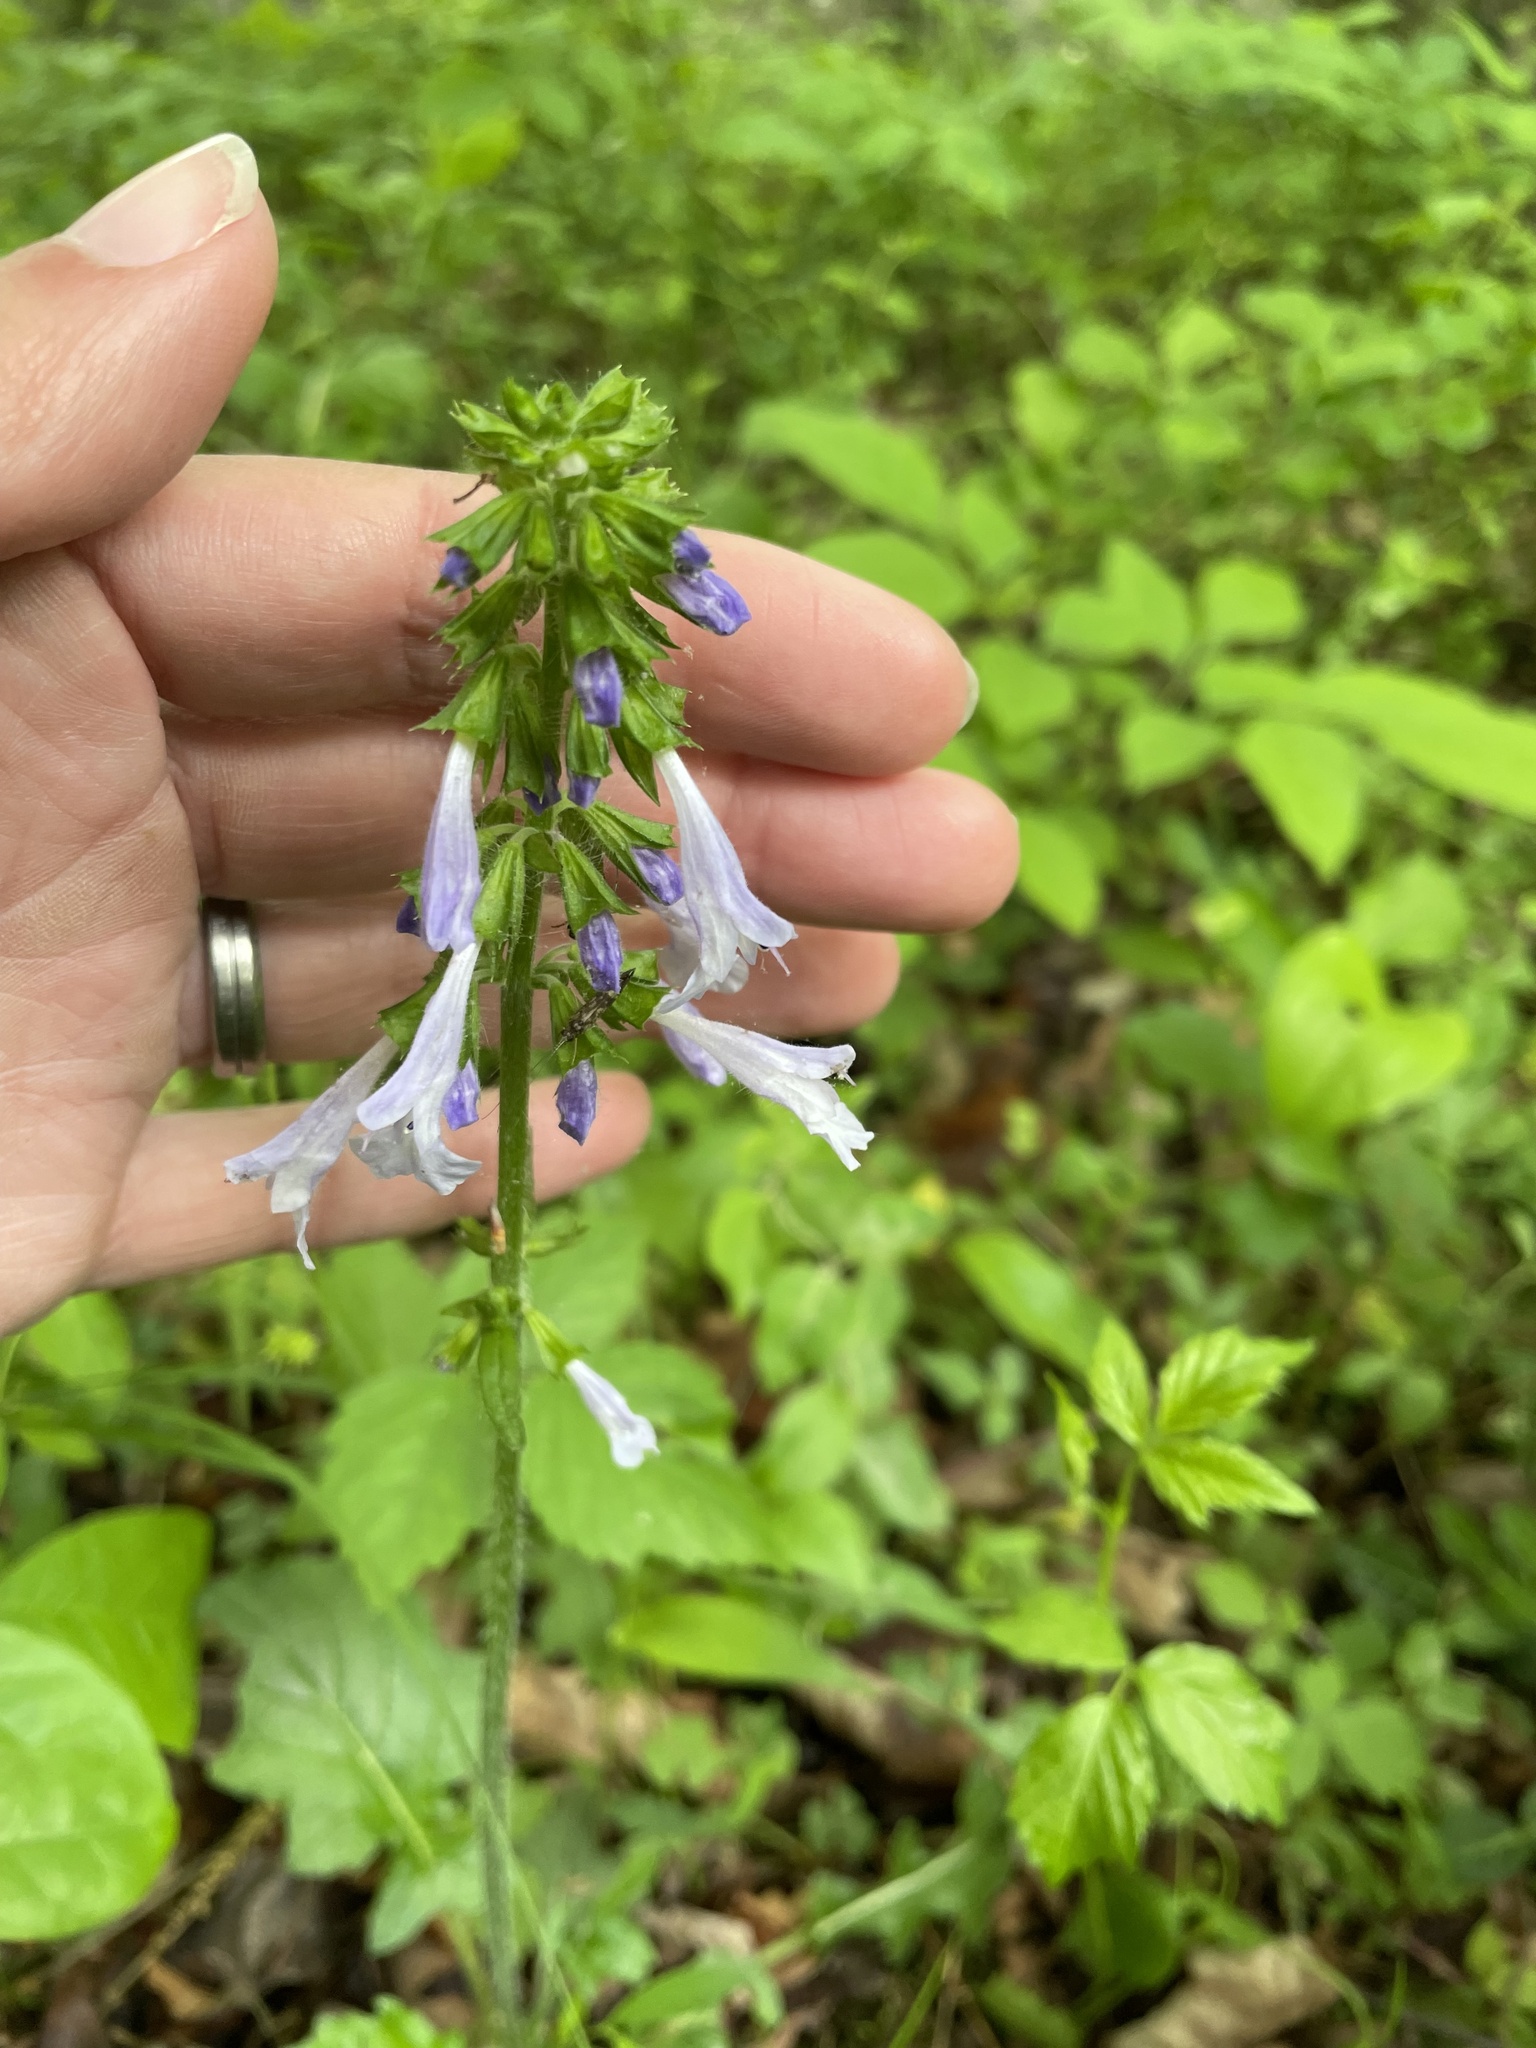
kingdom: Plantae
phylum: Tracheophyta
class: Magnoliopsida
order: Lamiales
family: Lamiaceae
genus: Salvia
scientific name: Salvia lyrata
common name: Cancerweed
